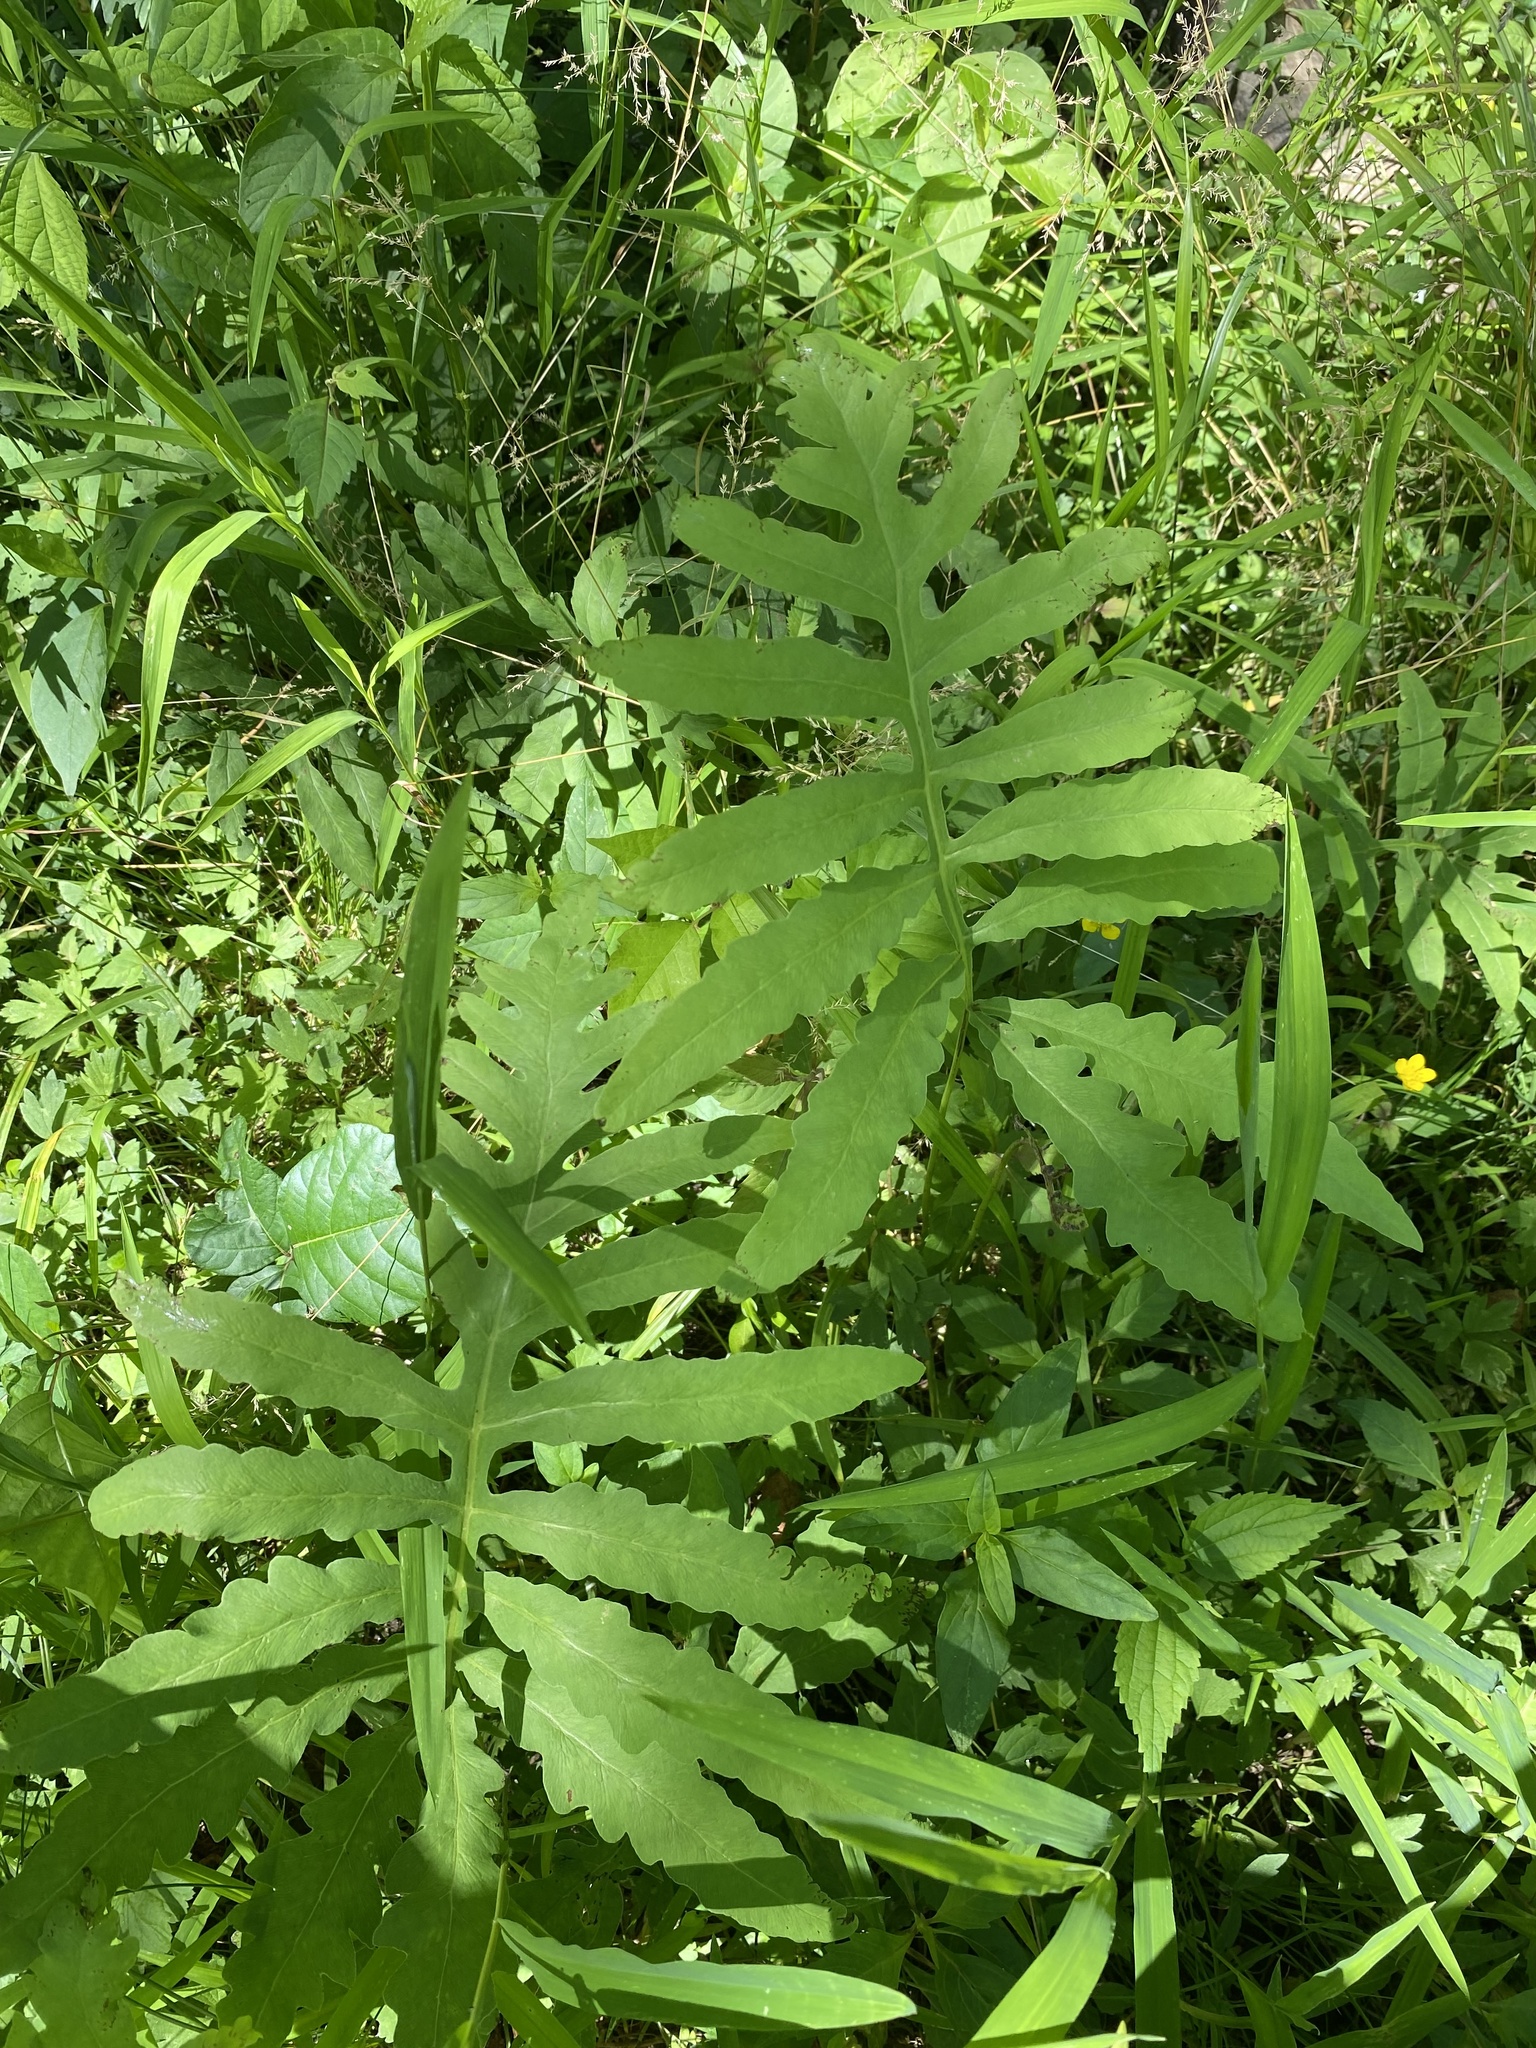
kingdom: Plantae
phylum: Tracheophyta
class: Polypodiopsida
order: Polypodiales
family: Onocleaceae
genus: Onoclea
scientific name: Onoclea sensibilis
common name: Sensitive fern
